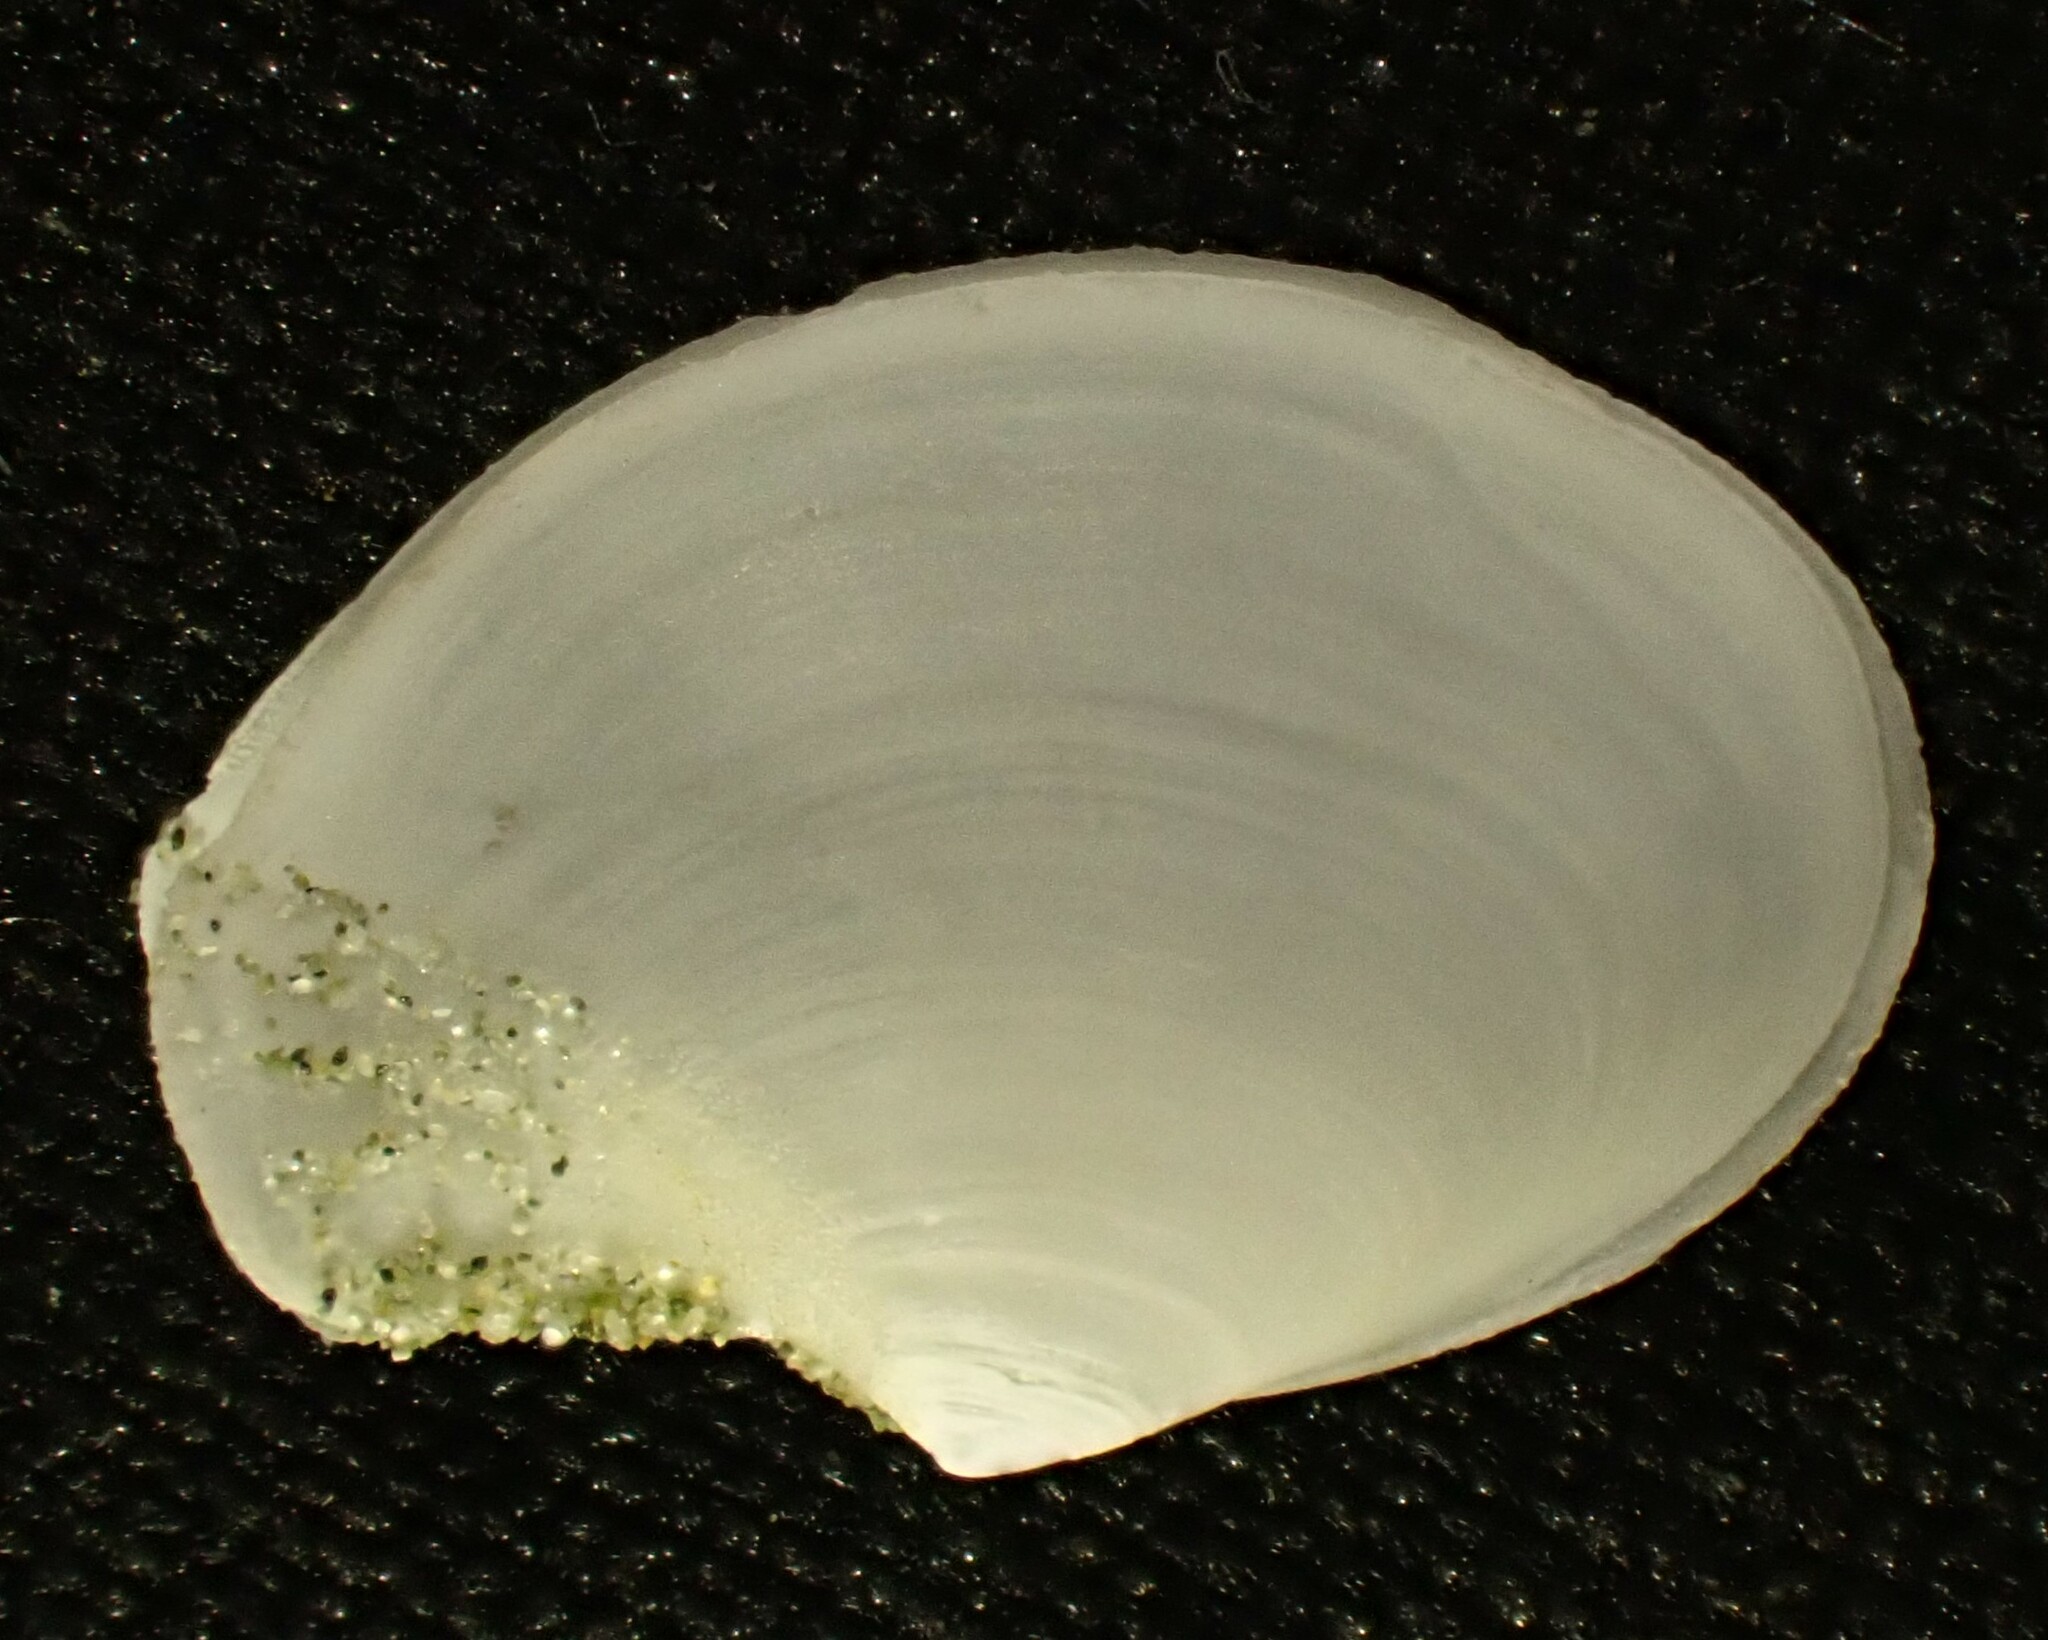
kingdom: Animalia
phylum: Mollusca
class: Bivalvia
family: Periplomatidae
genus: Offadesma
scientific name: Offadesma angasi
